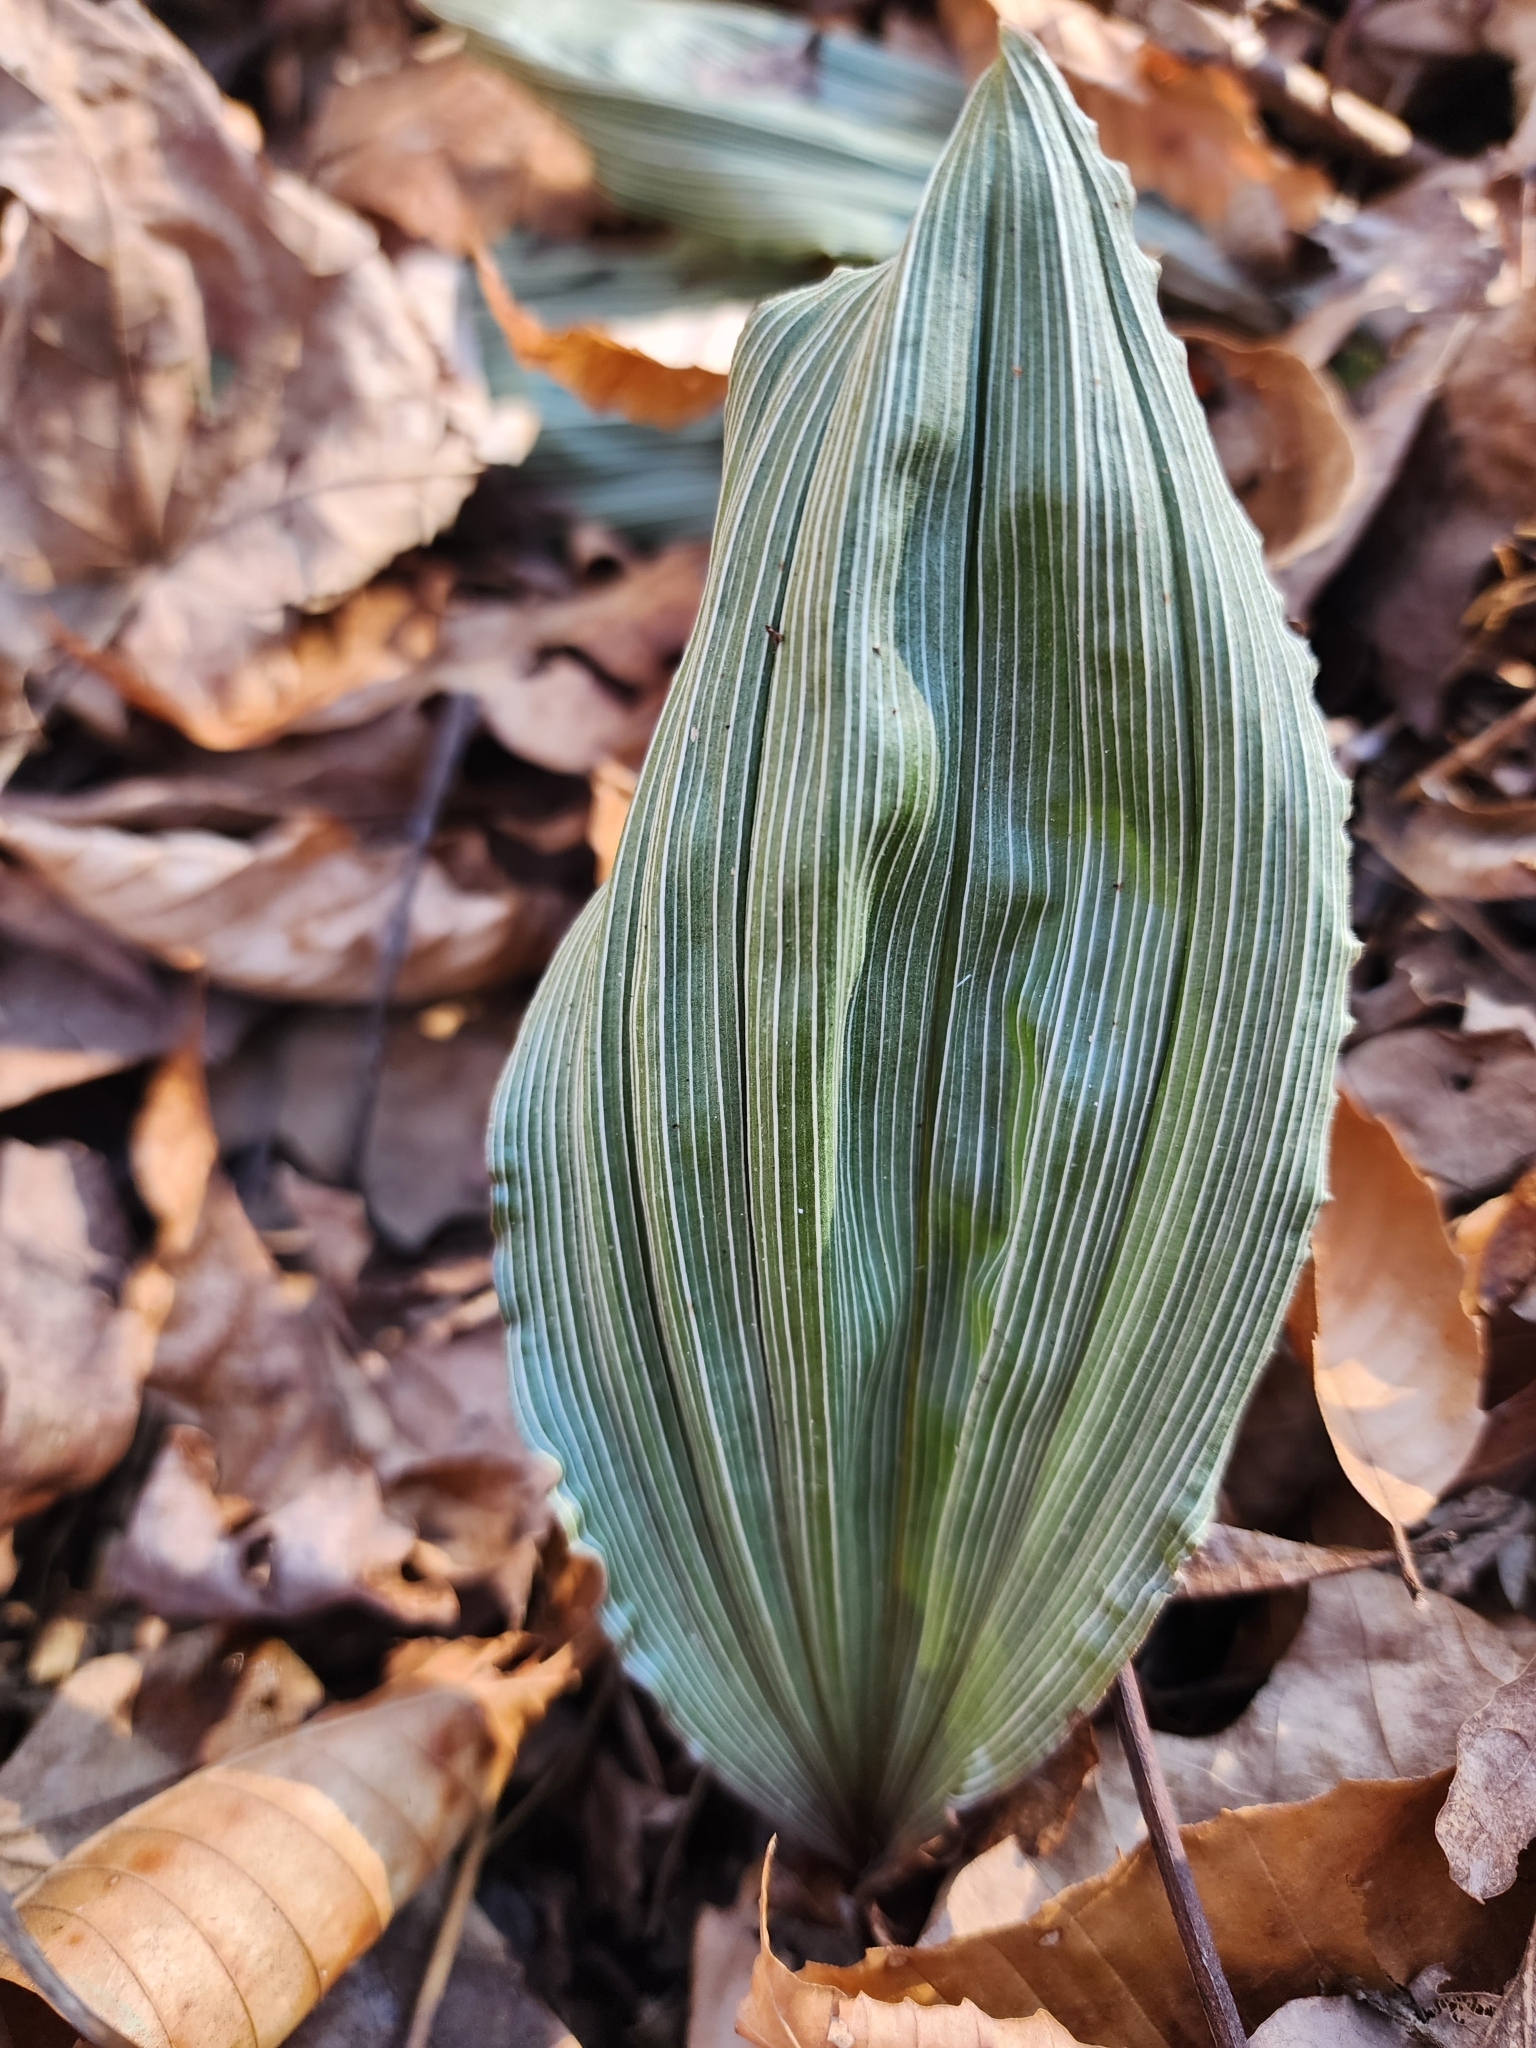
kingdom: Plantae
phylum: Tracheophyta
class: Liliopsida
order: Asparagales
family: Orchidaceae
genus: Aplectrum
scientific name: Aplectrum hyemale
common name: Adam-and-eve
